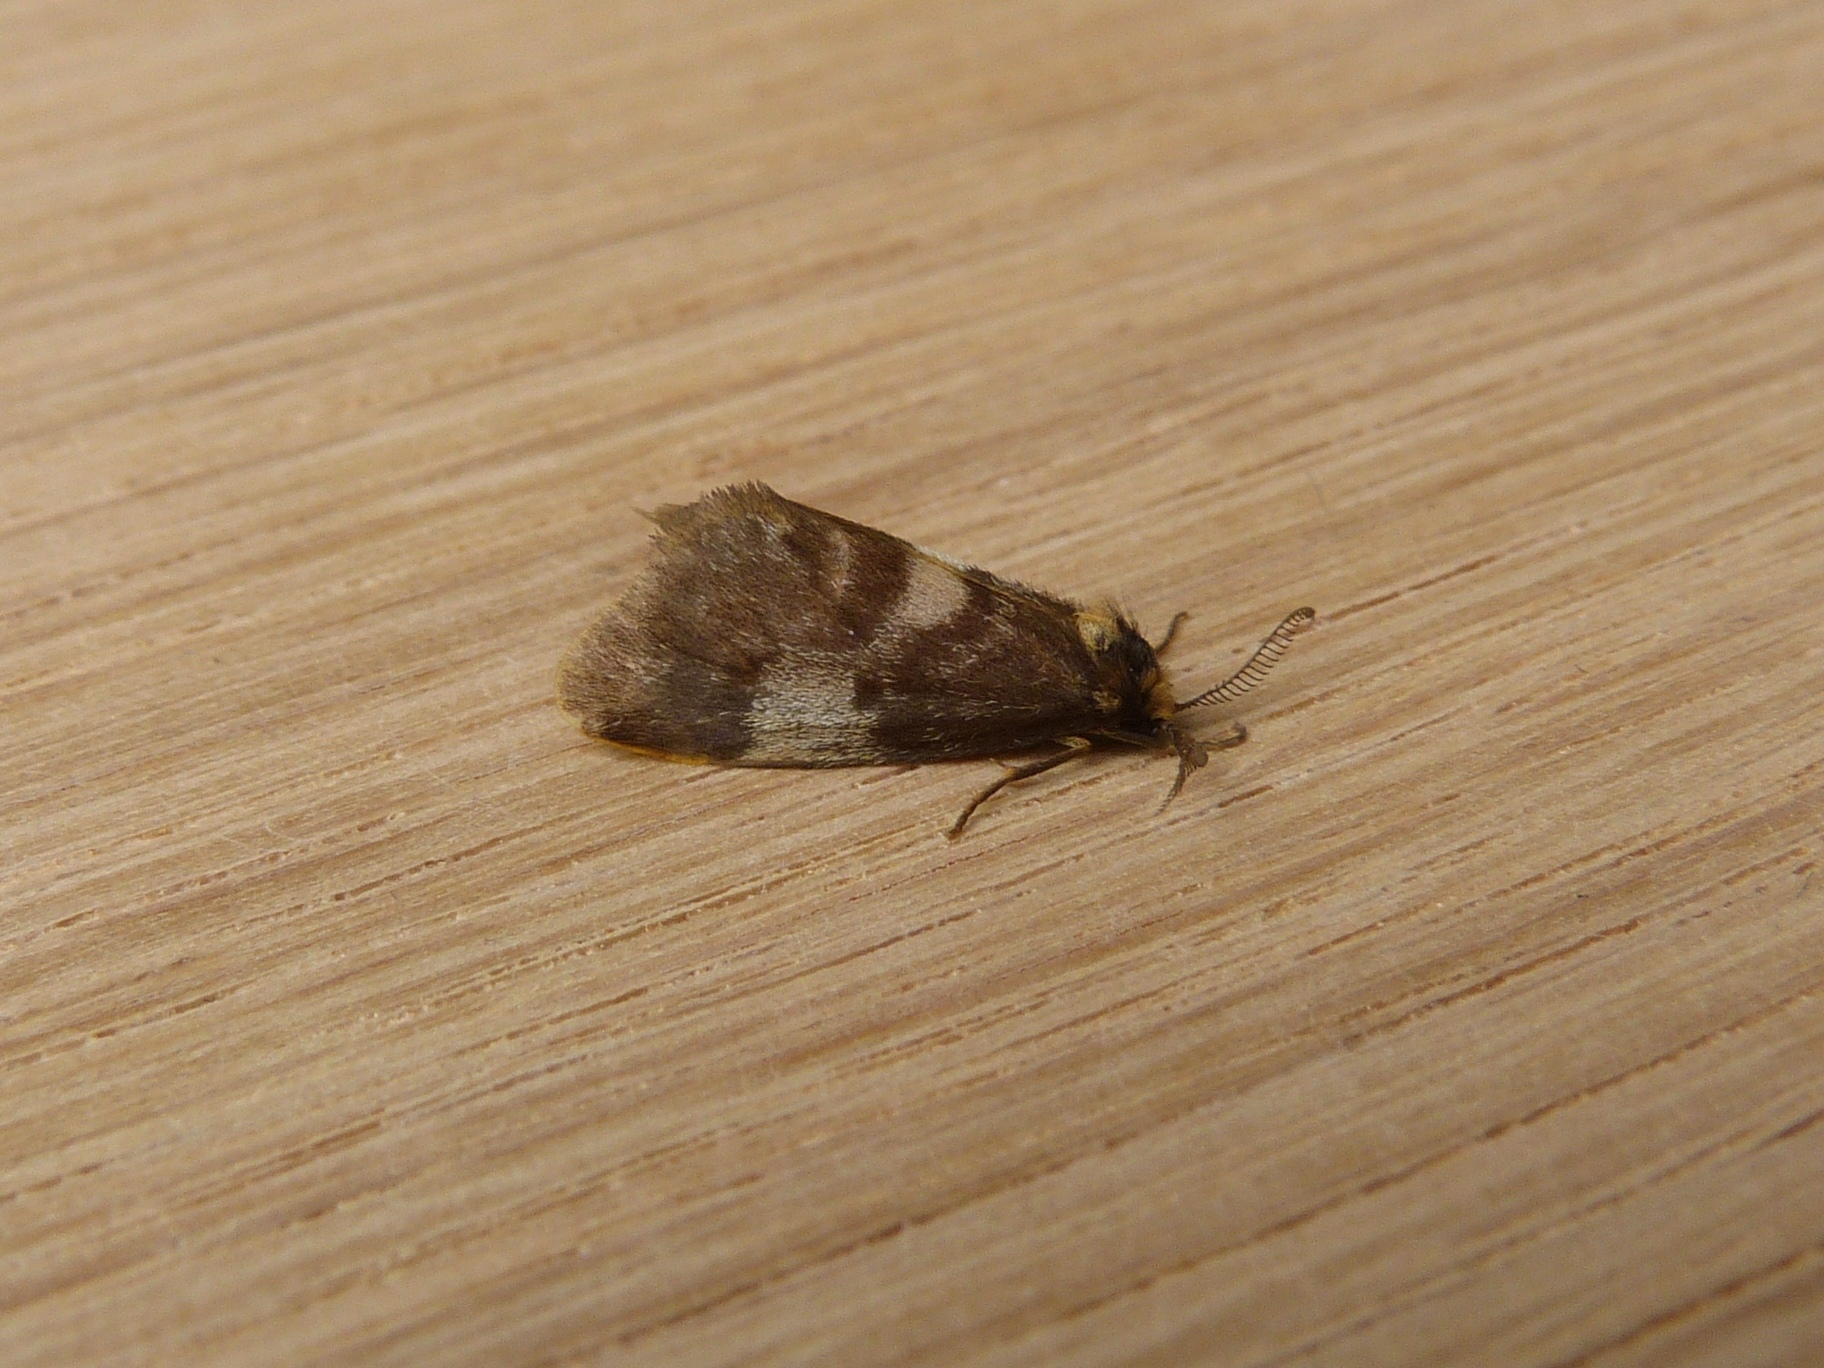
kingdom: Animalia
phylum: Arthropoda
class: Insecta
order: Lepidoptera
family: Erebidae
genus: Anestia
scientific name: Anestia semiochrea
